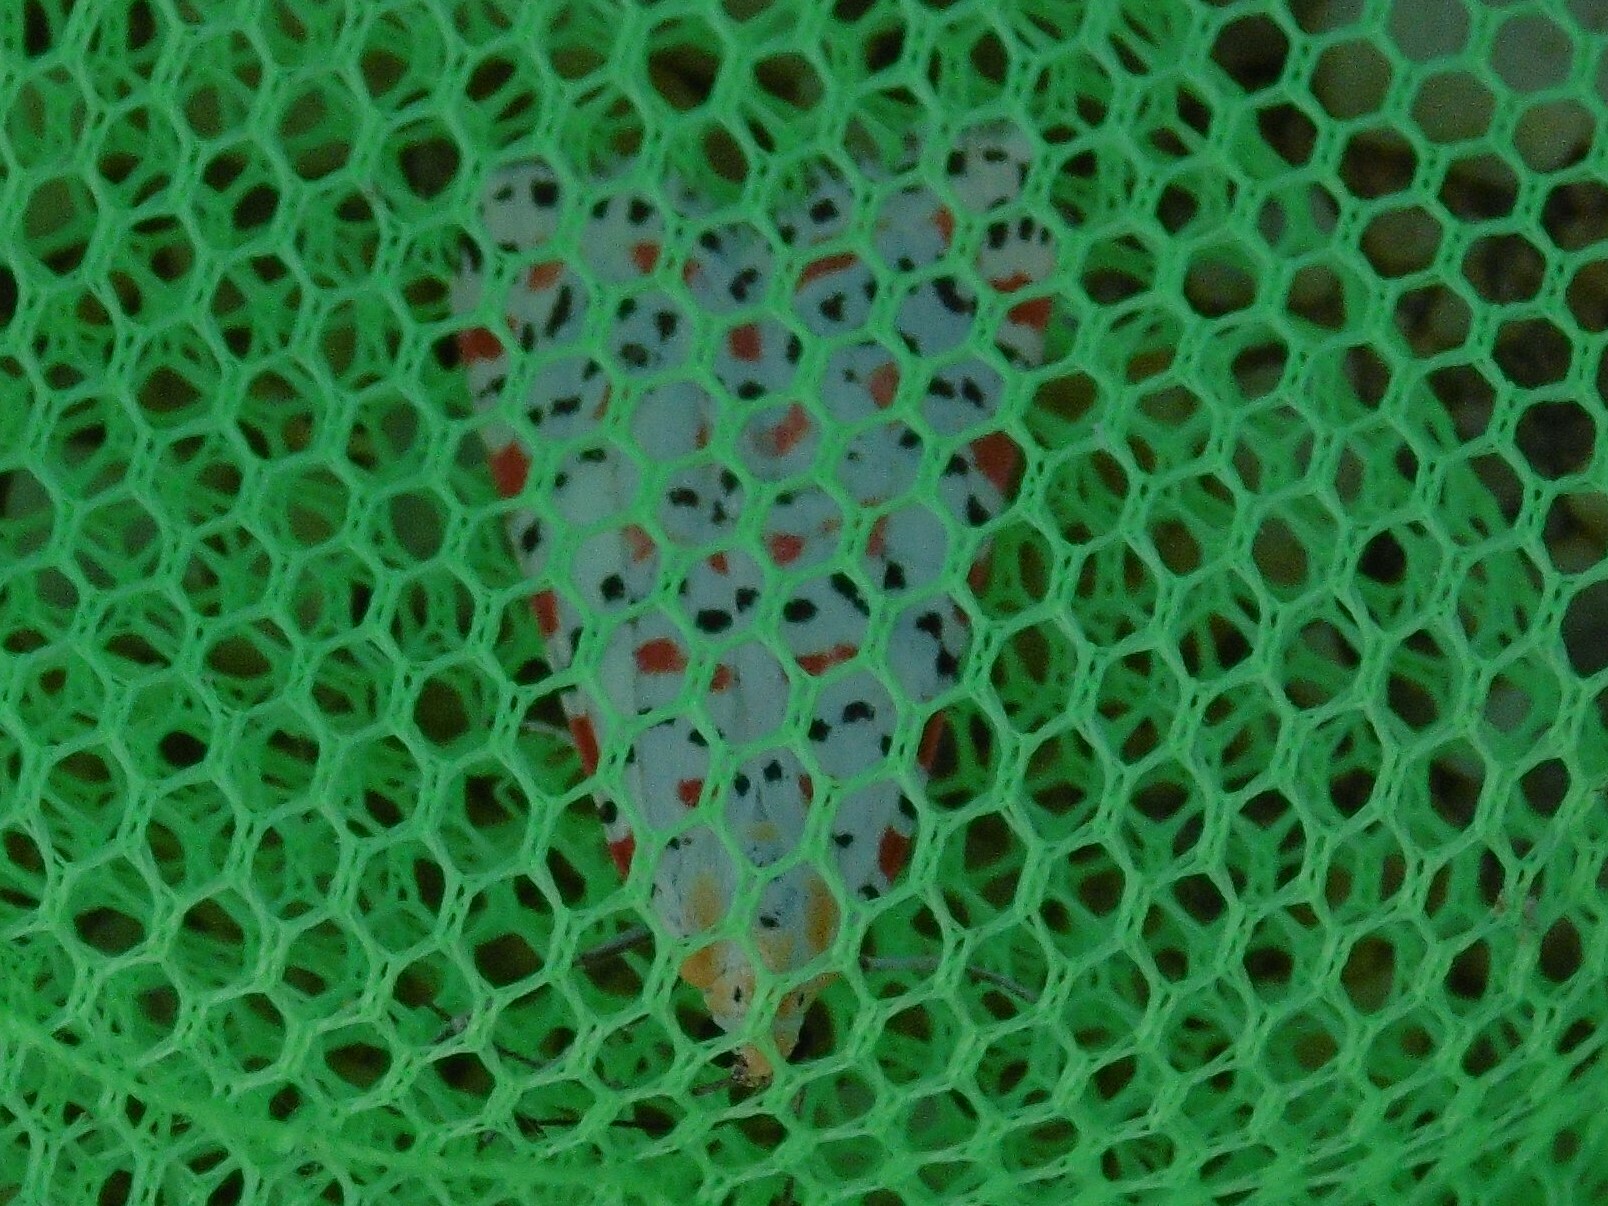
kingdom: Animalia
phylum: Arthropoda
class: Insecta
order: Lepidoptera
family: Erebidae
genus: Utetheisa
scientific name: Utetheisa pulchella
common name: Crimson speckled
